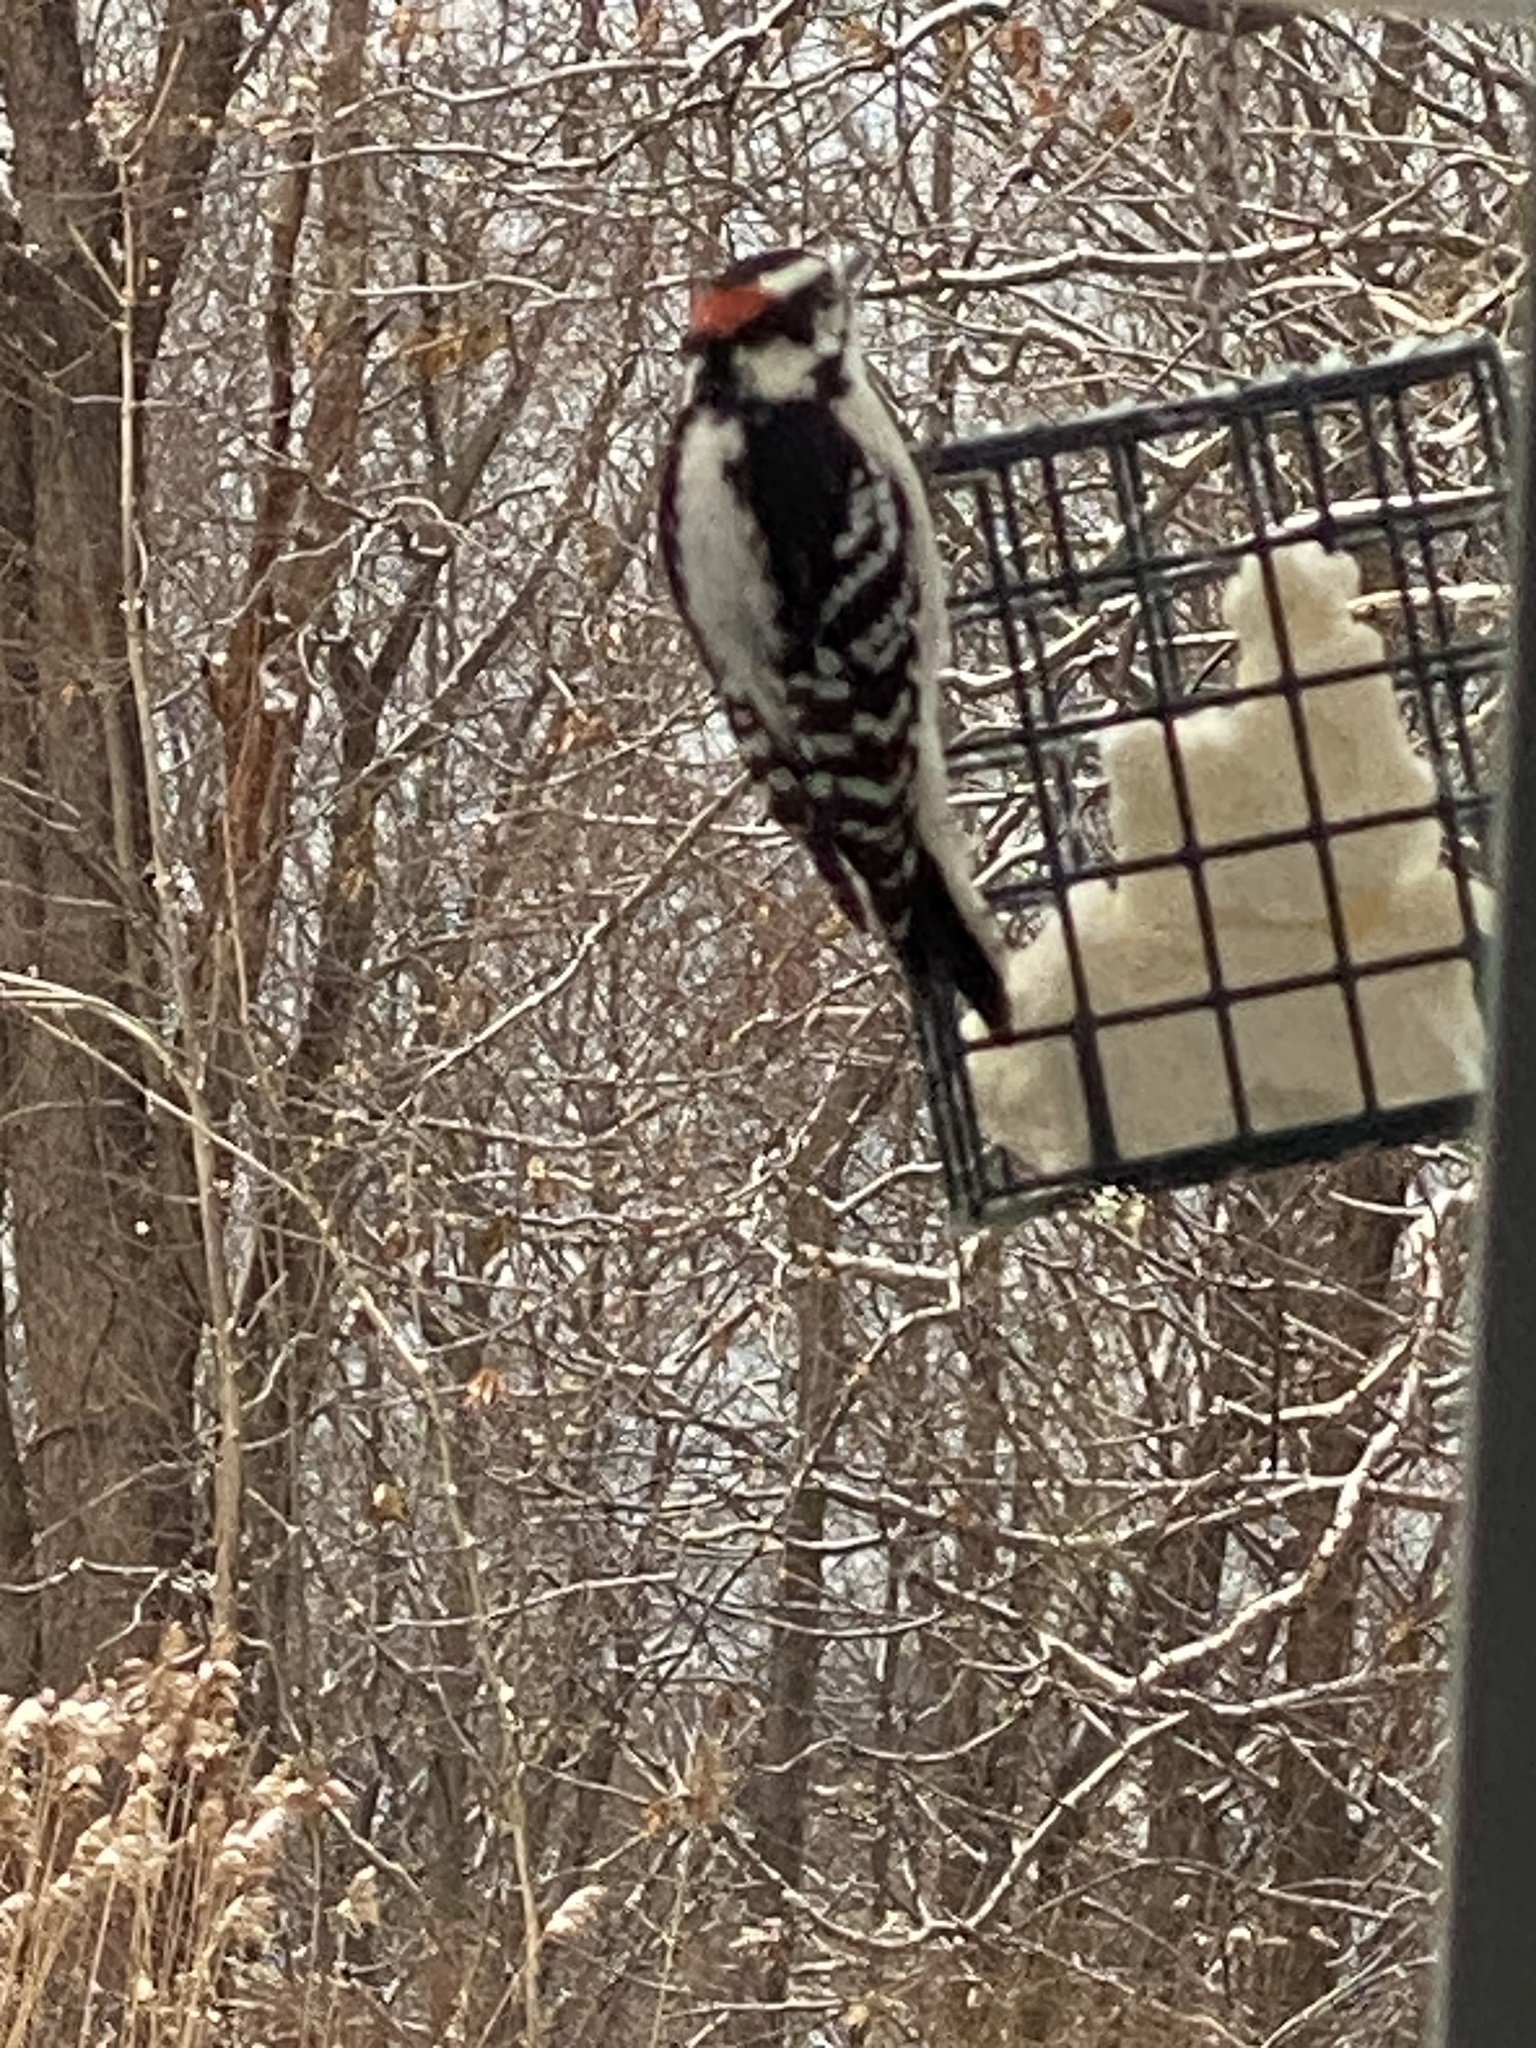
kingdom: Animalia
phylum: Chordata
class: Aves
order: Piciformes
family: Picidae
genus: Dryobates
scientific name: Dryobates pubescens
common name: Downy woodpecker
